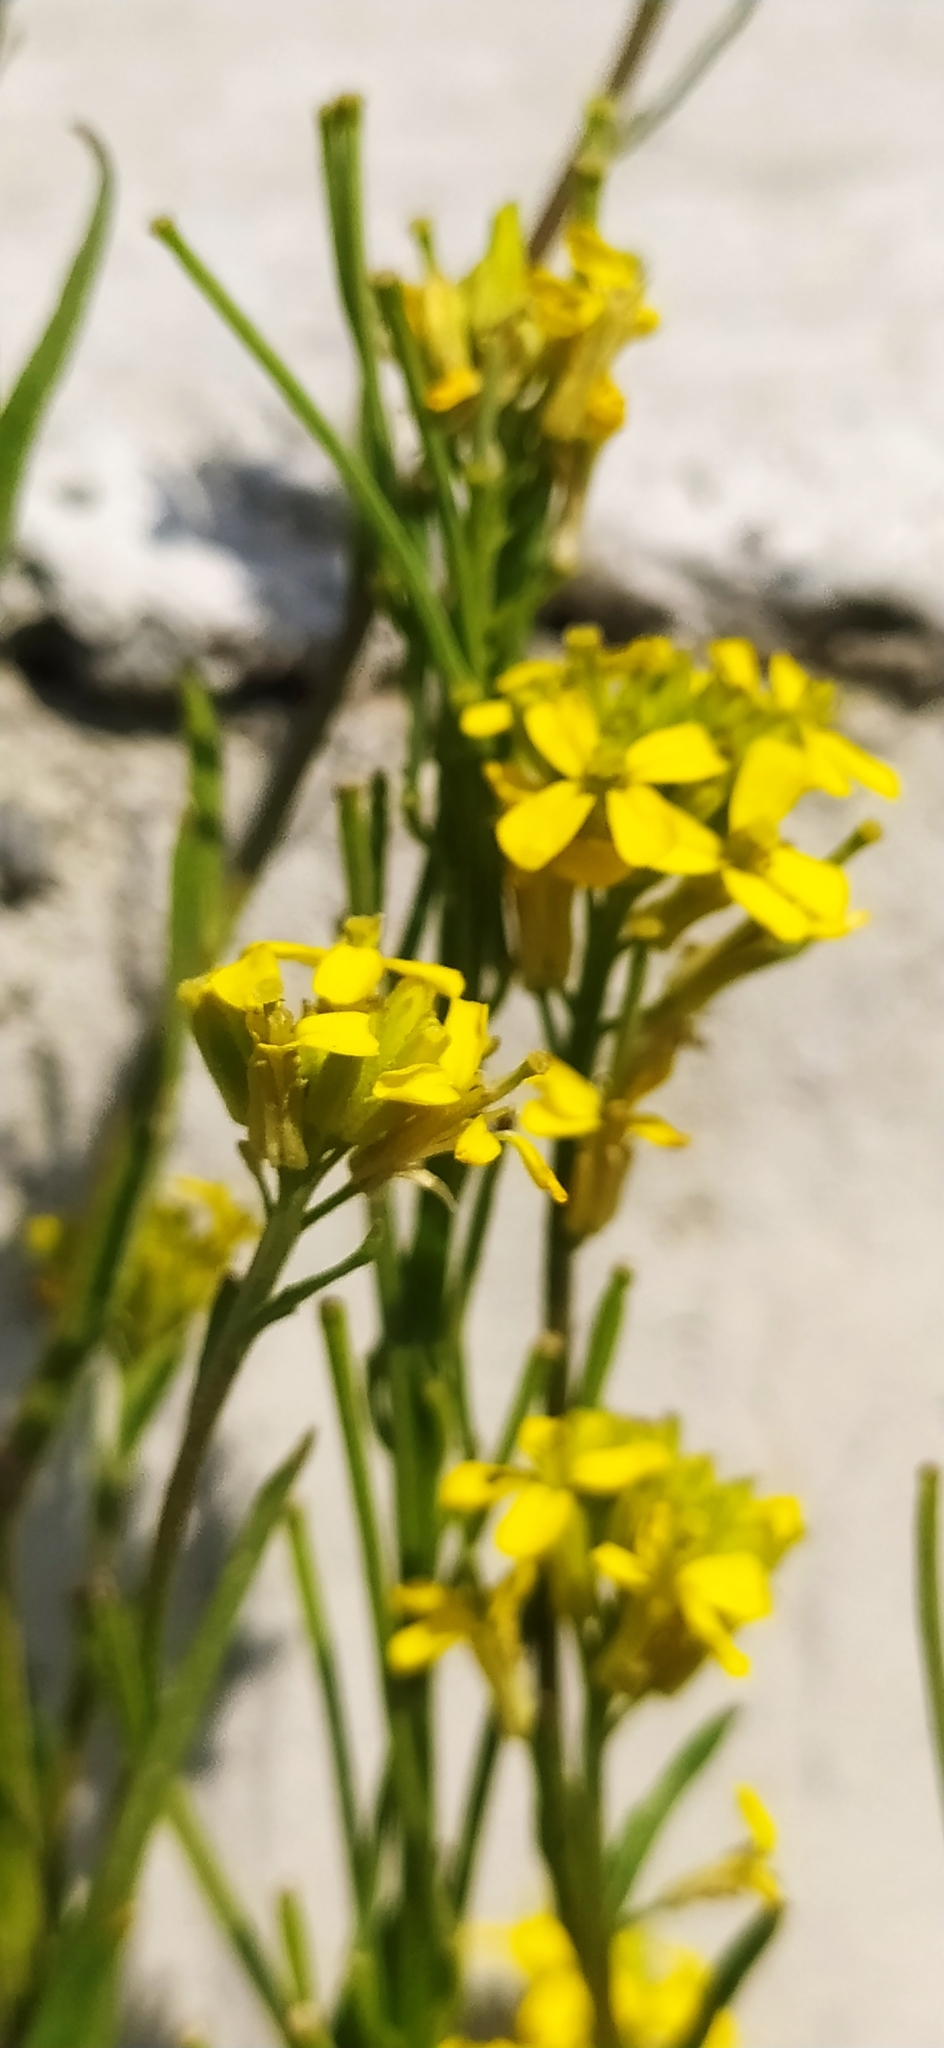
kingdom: Plantae
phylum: Tracheophyta
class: Magnoliopsida
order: Brassicales
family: Brassicaceae
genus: Erysimum
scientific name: Erysimum marschallianum
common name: Hard wallflower
